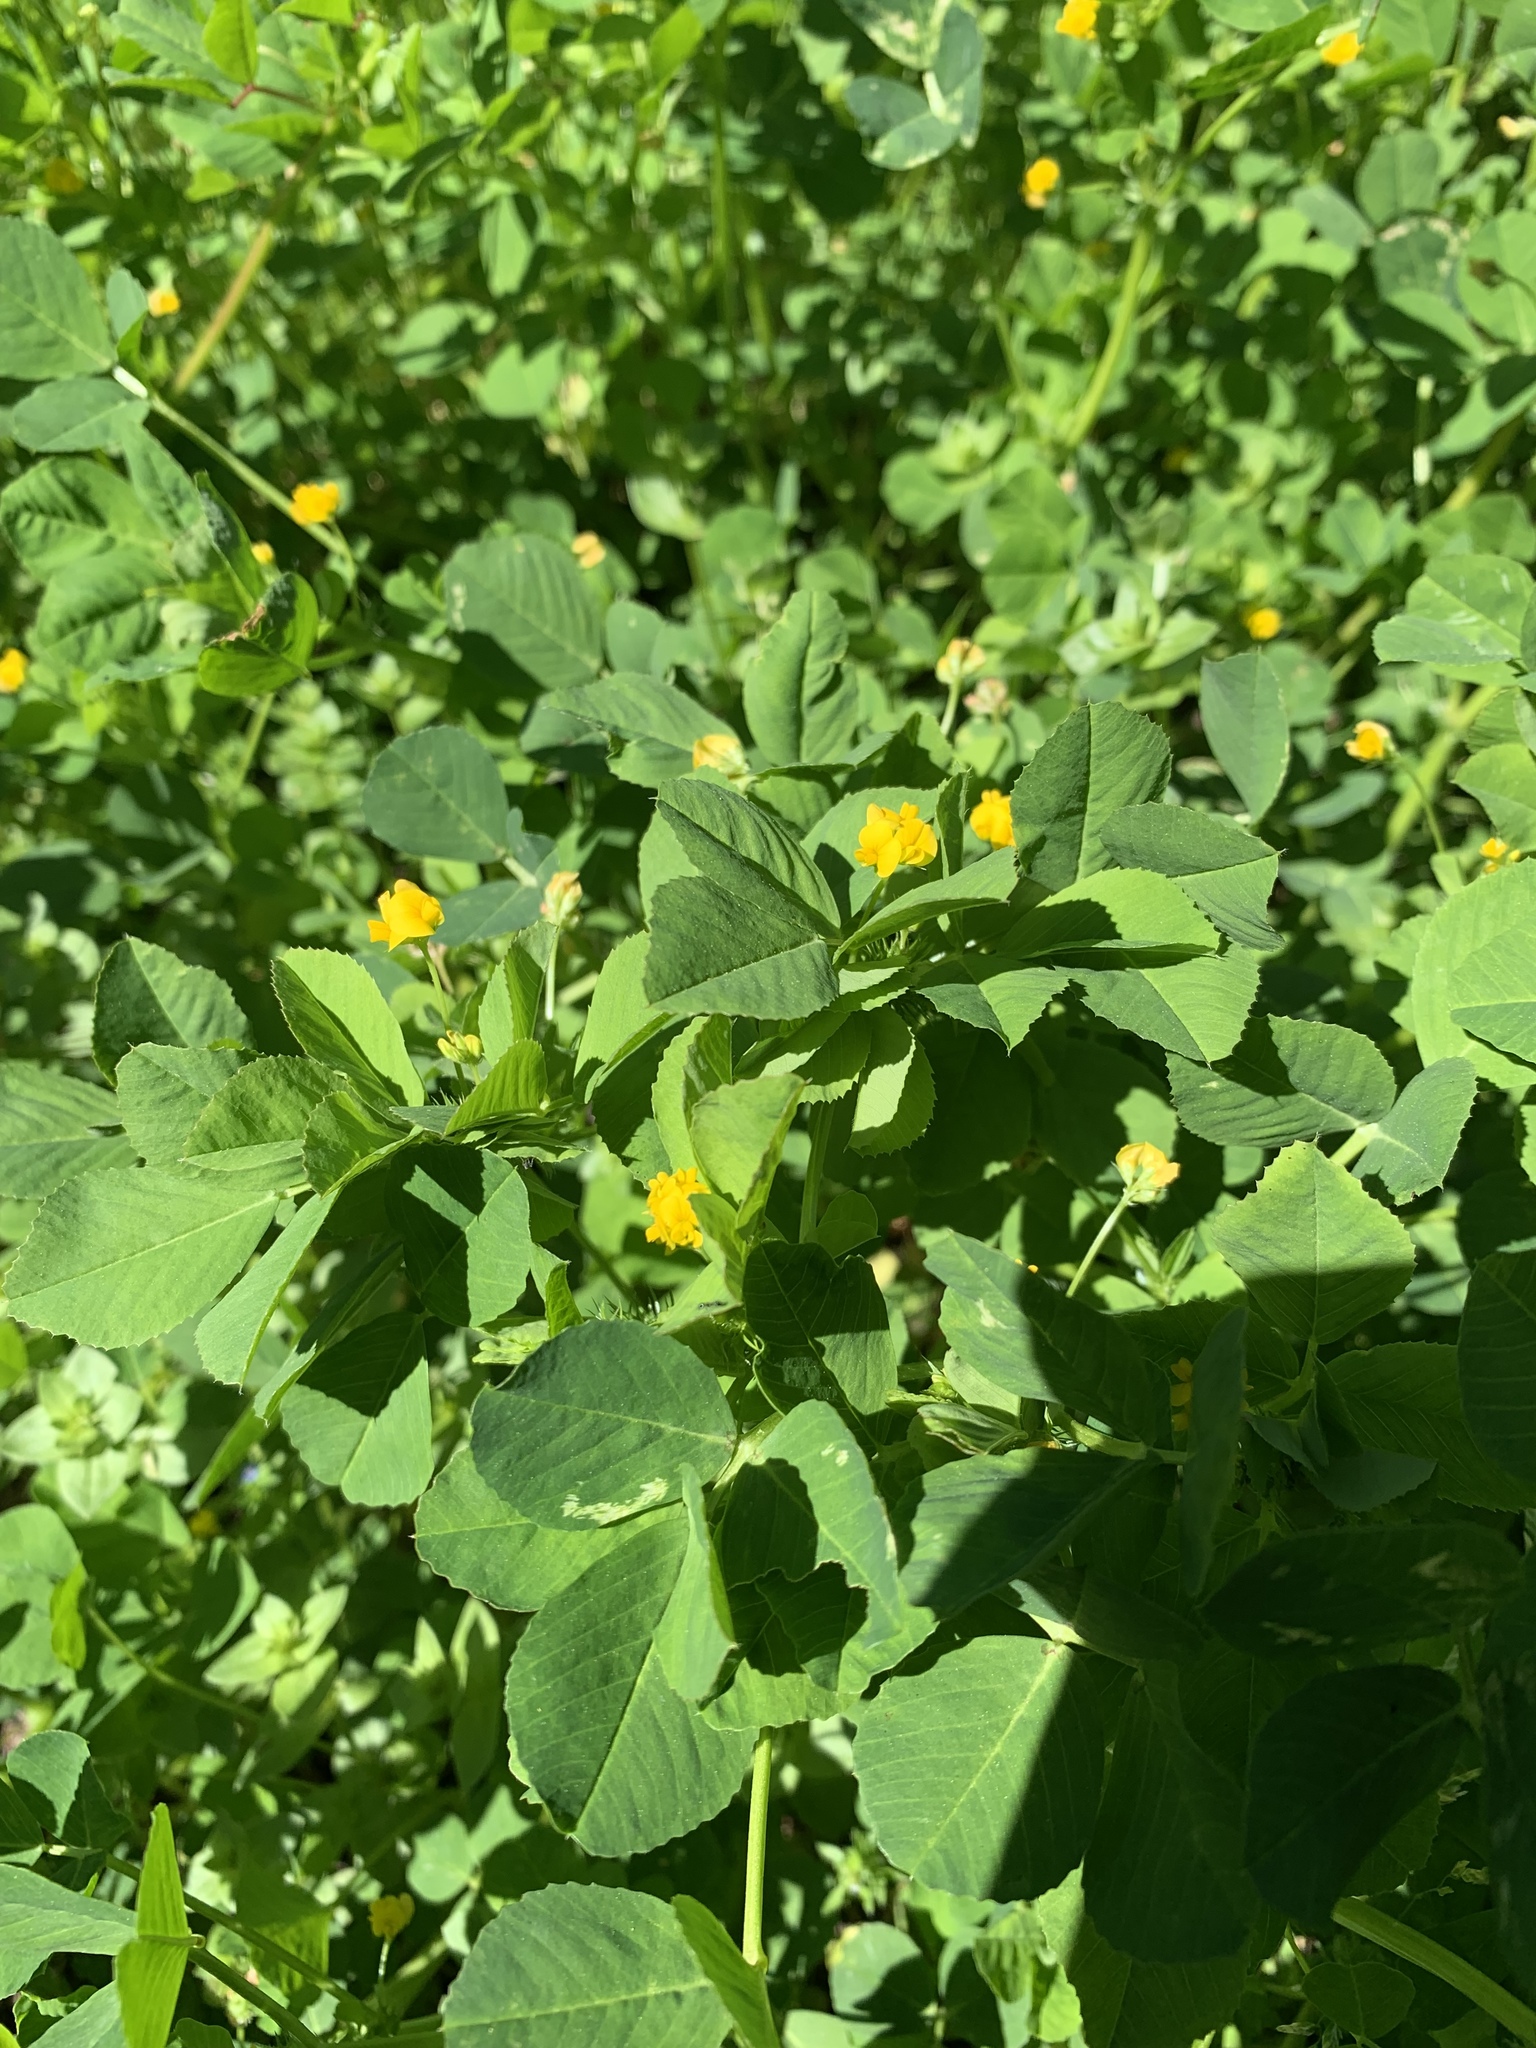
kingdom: Plantae
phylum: Tracheophyta
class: Magnoliopsida
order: Fabales
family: Fabaceae
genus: Medicago
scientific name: Medicago polymorpha
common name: Burclover
